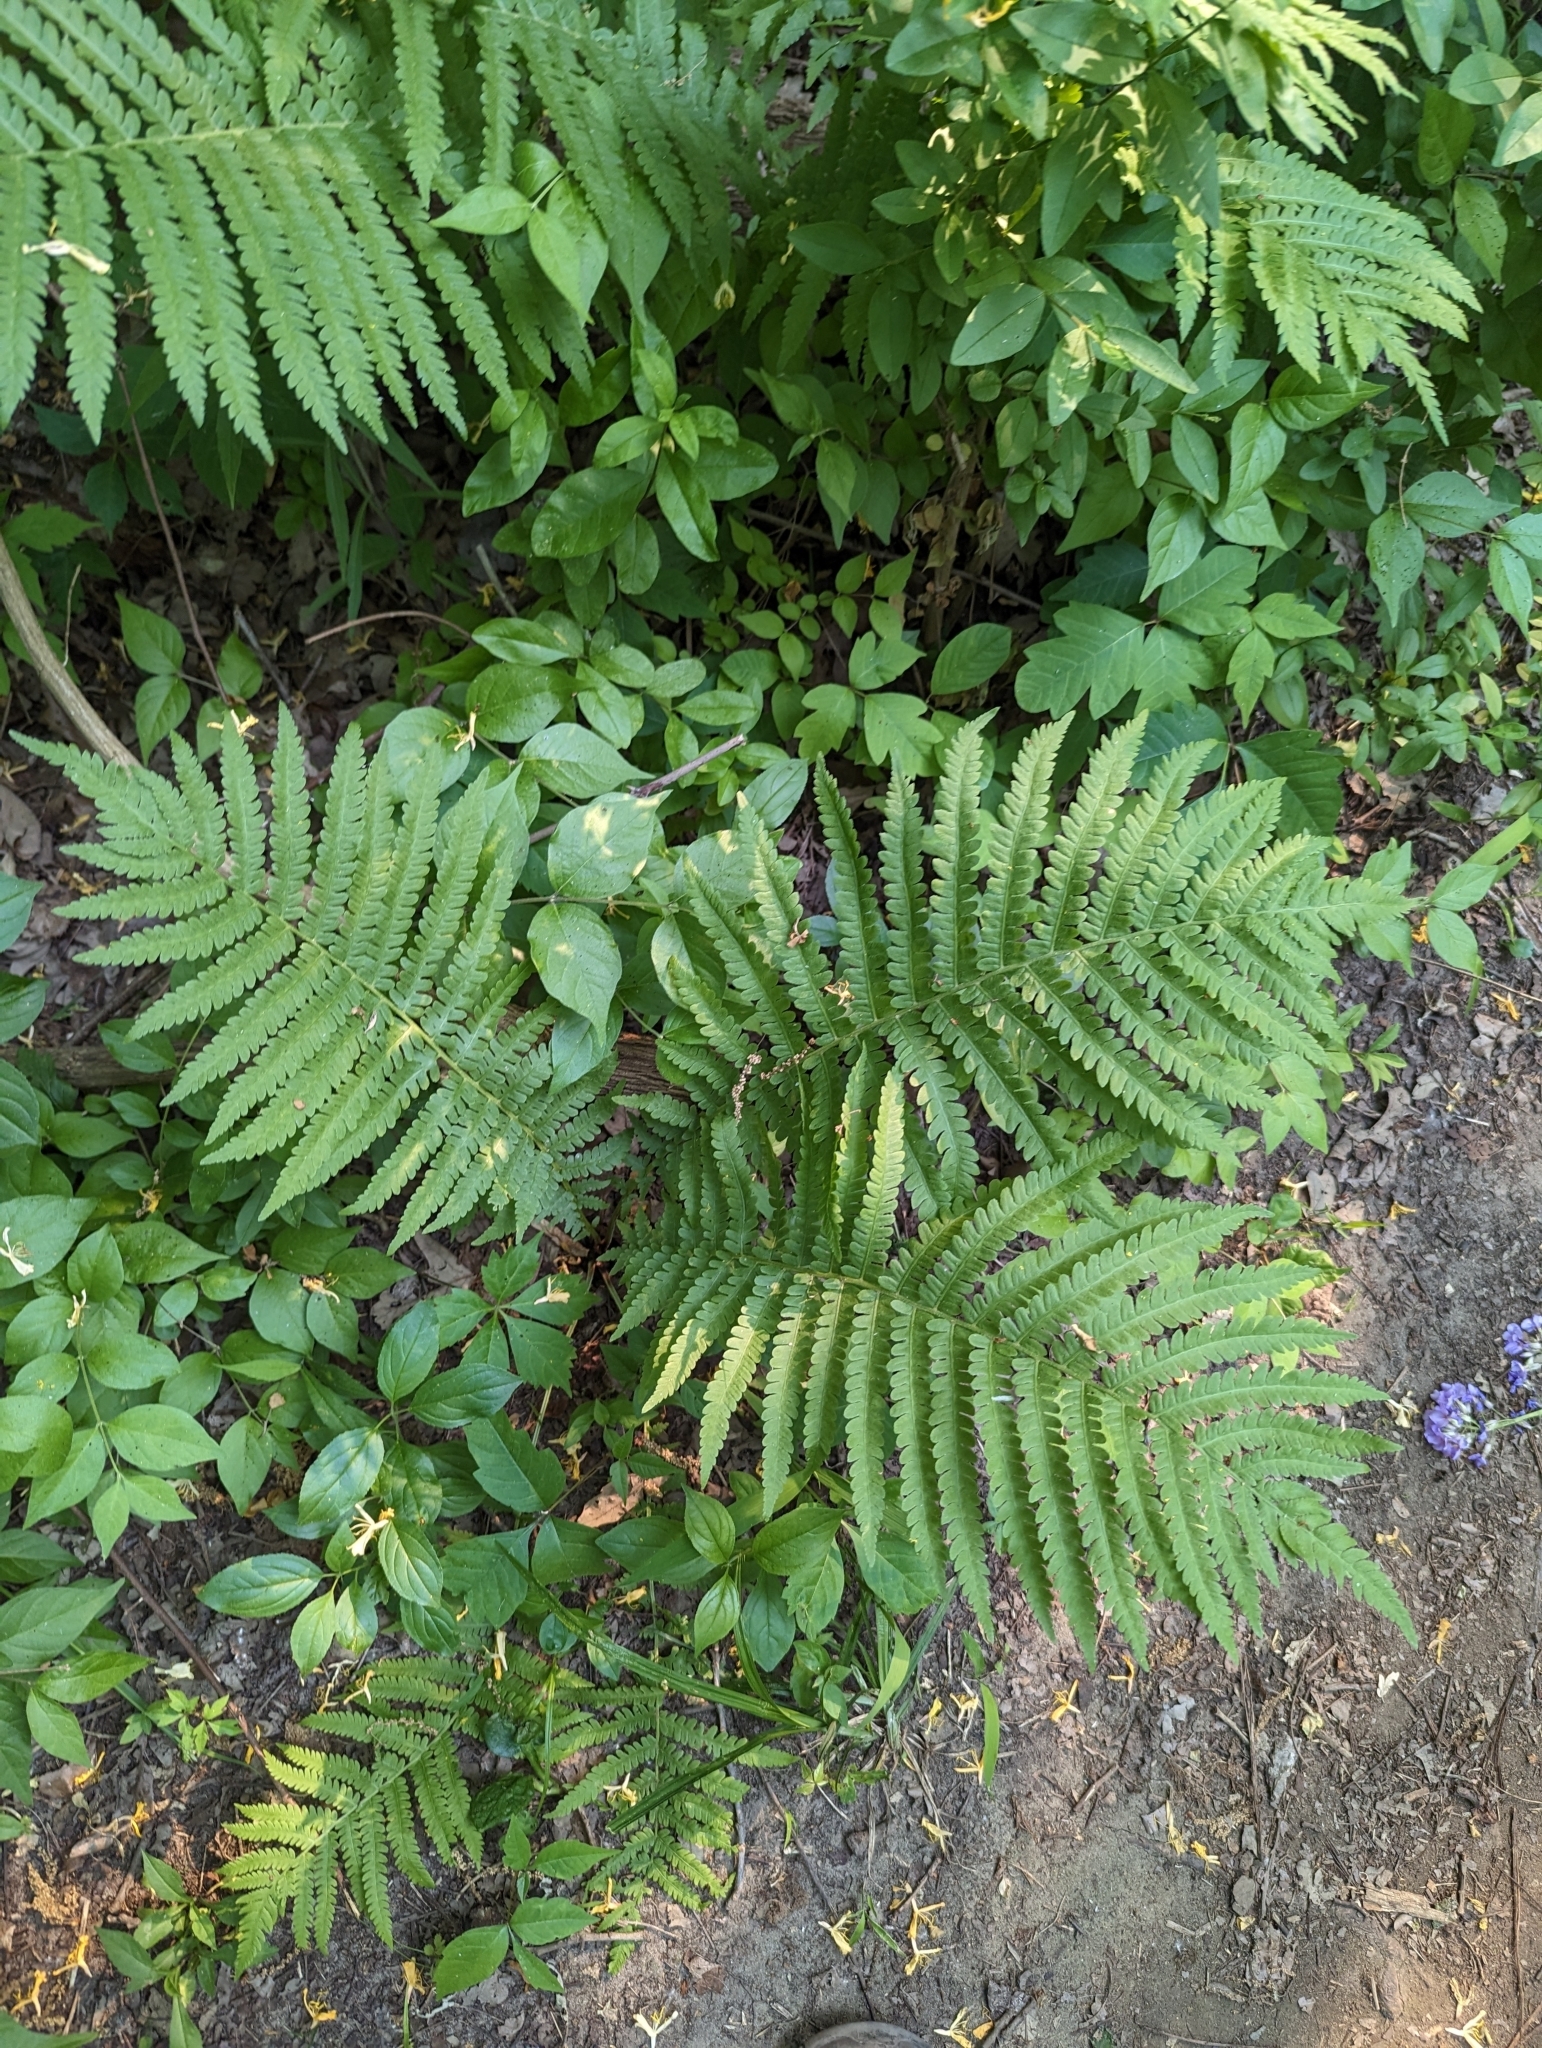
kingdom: Plantae
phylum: Tracheophyta
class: Polypodiopsida
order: Polypodiales
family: Onocleaceae
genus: Matteuccia
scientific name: Matteuccia struthiopteris
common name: Ostrich fern
